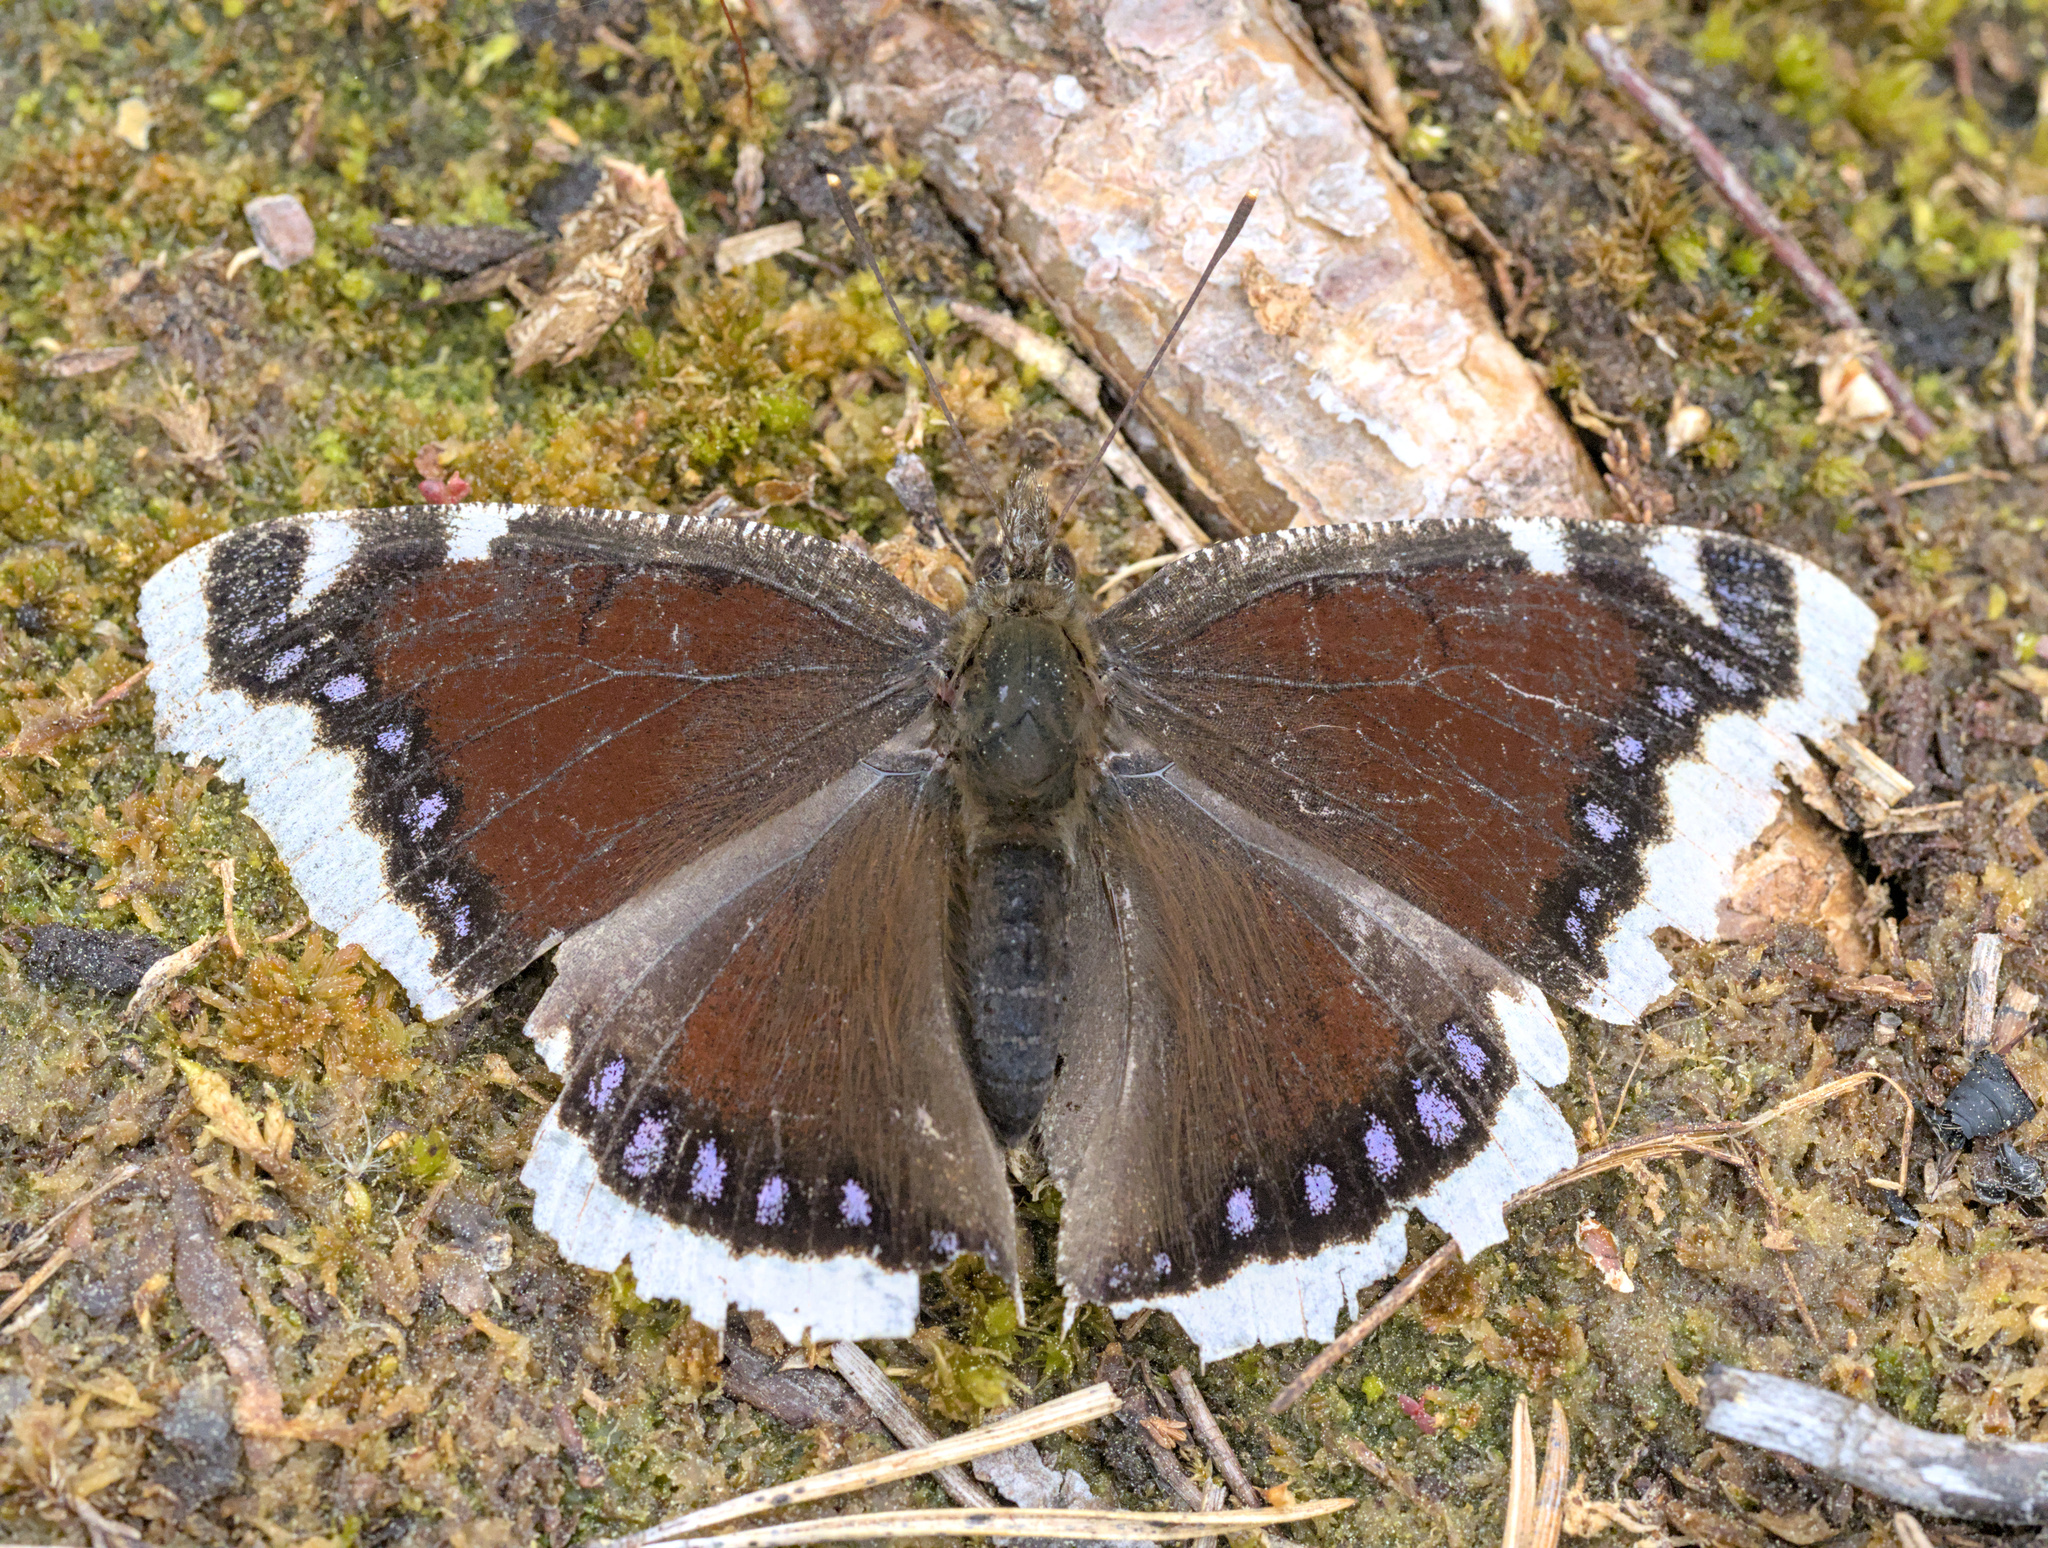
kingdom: Animalia
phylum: Arthropoda
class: Insecta
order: Lepidoptera
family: Nymphalidae
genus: Nymphalis
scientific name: Nymphalis antiopa
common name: Camberwell beauty
